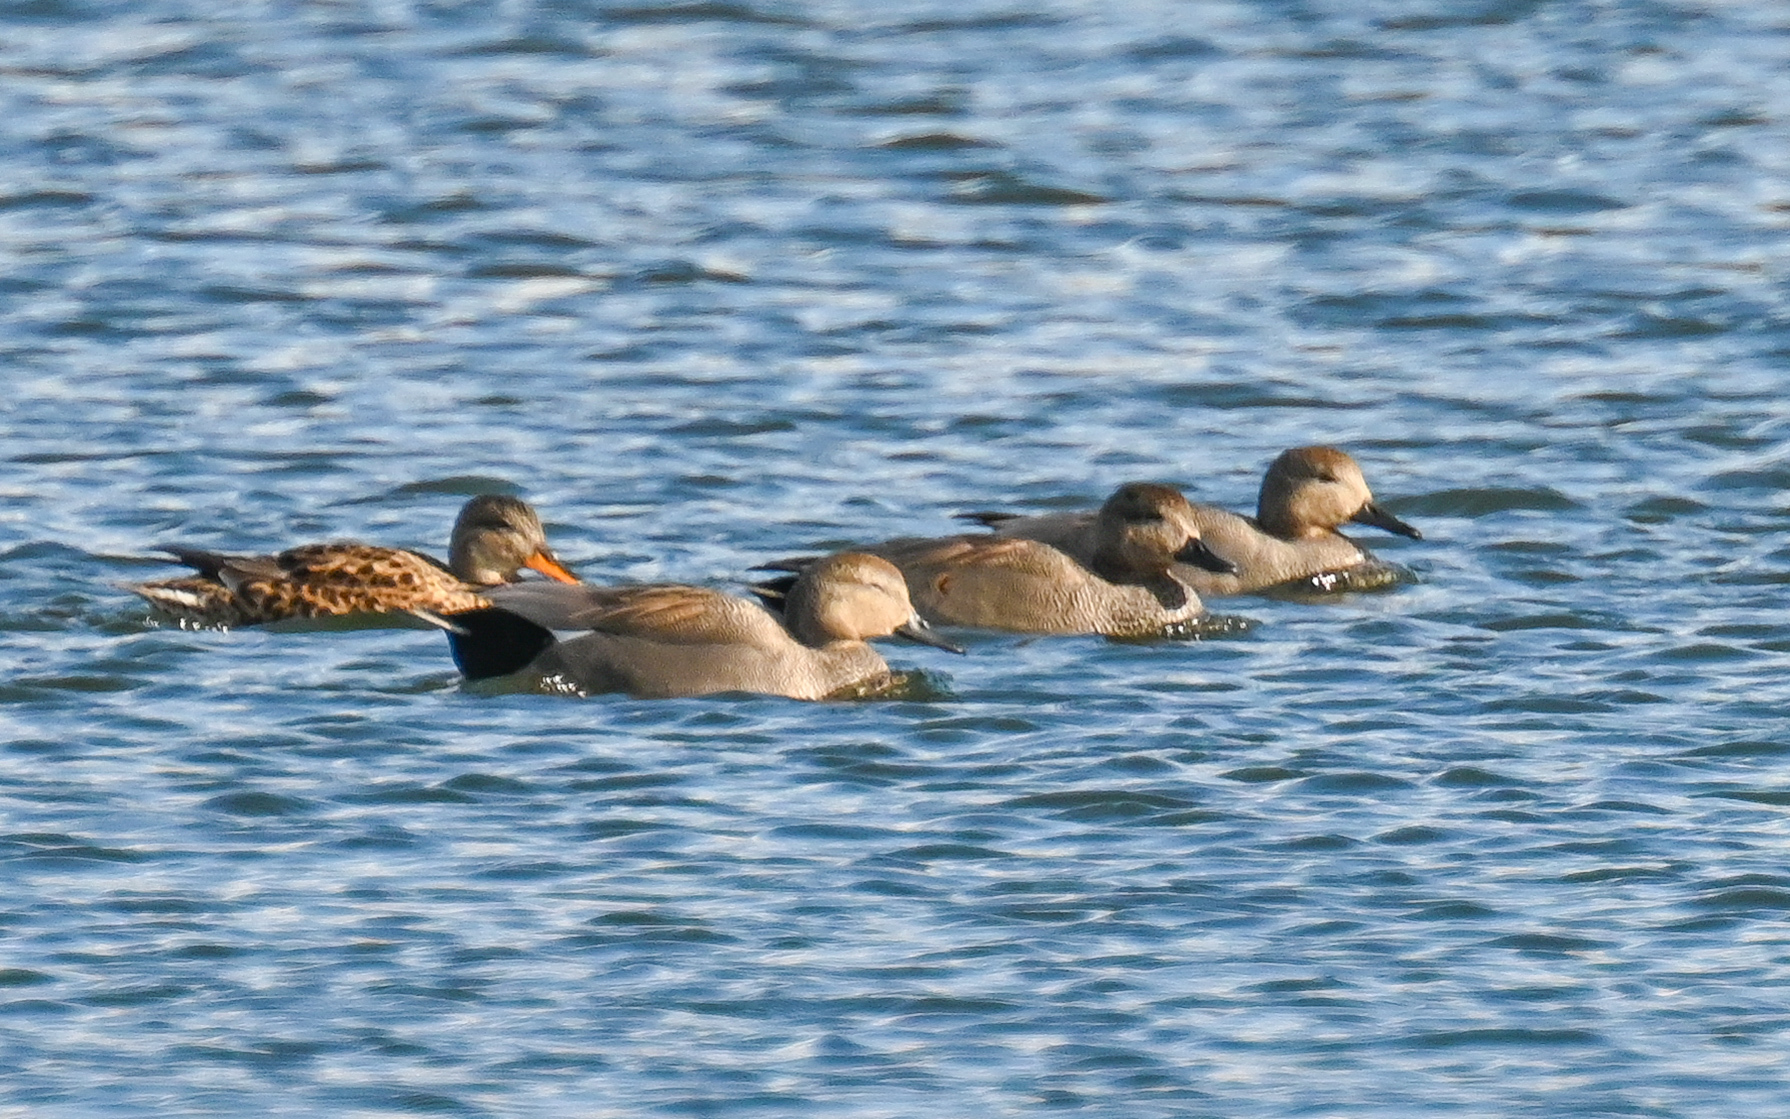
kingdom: Animalia
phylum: Chordata
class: Aves
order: Anseriformes
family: Anatidae
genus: Mareca
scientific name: Mareca strepera
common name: Gadwall
